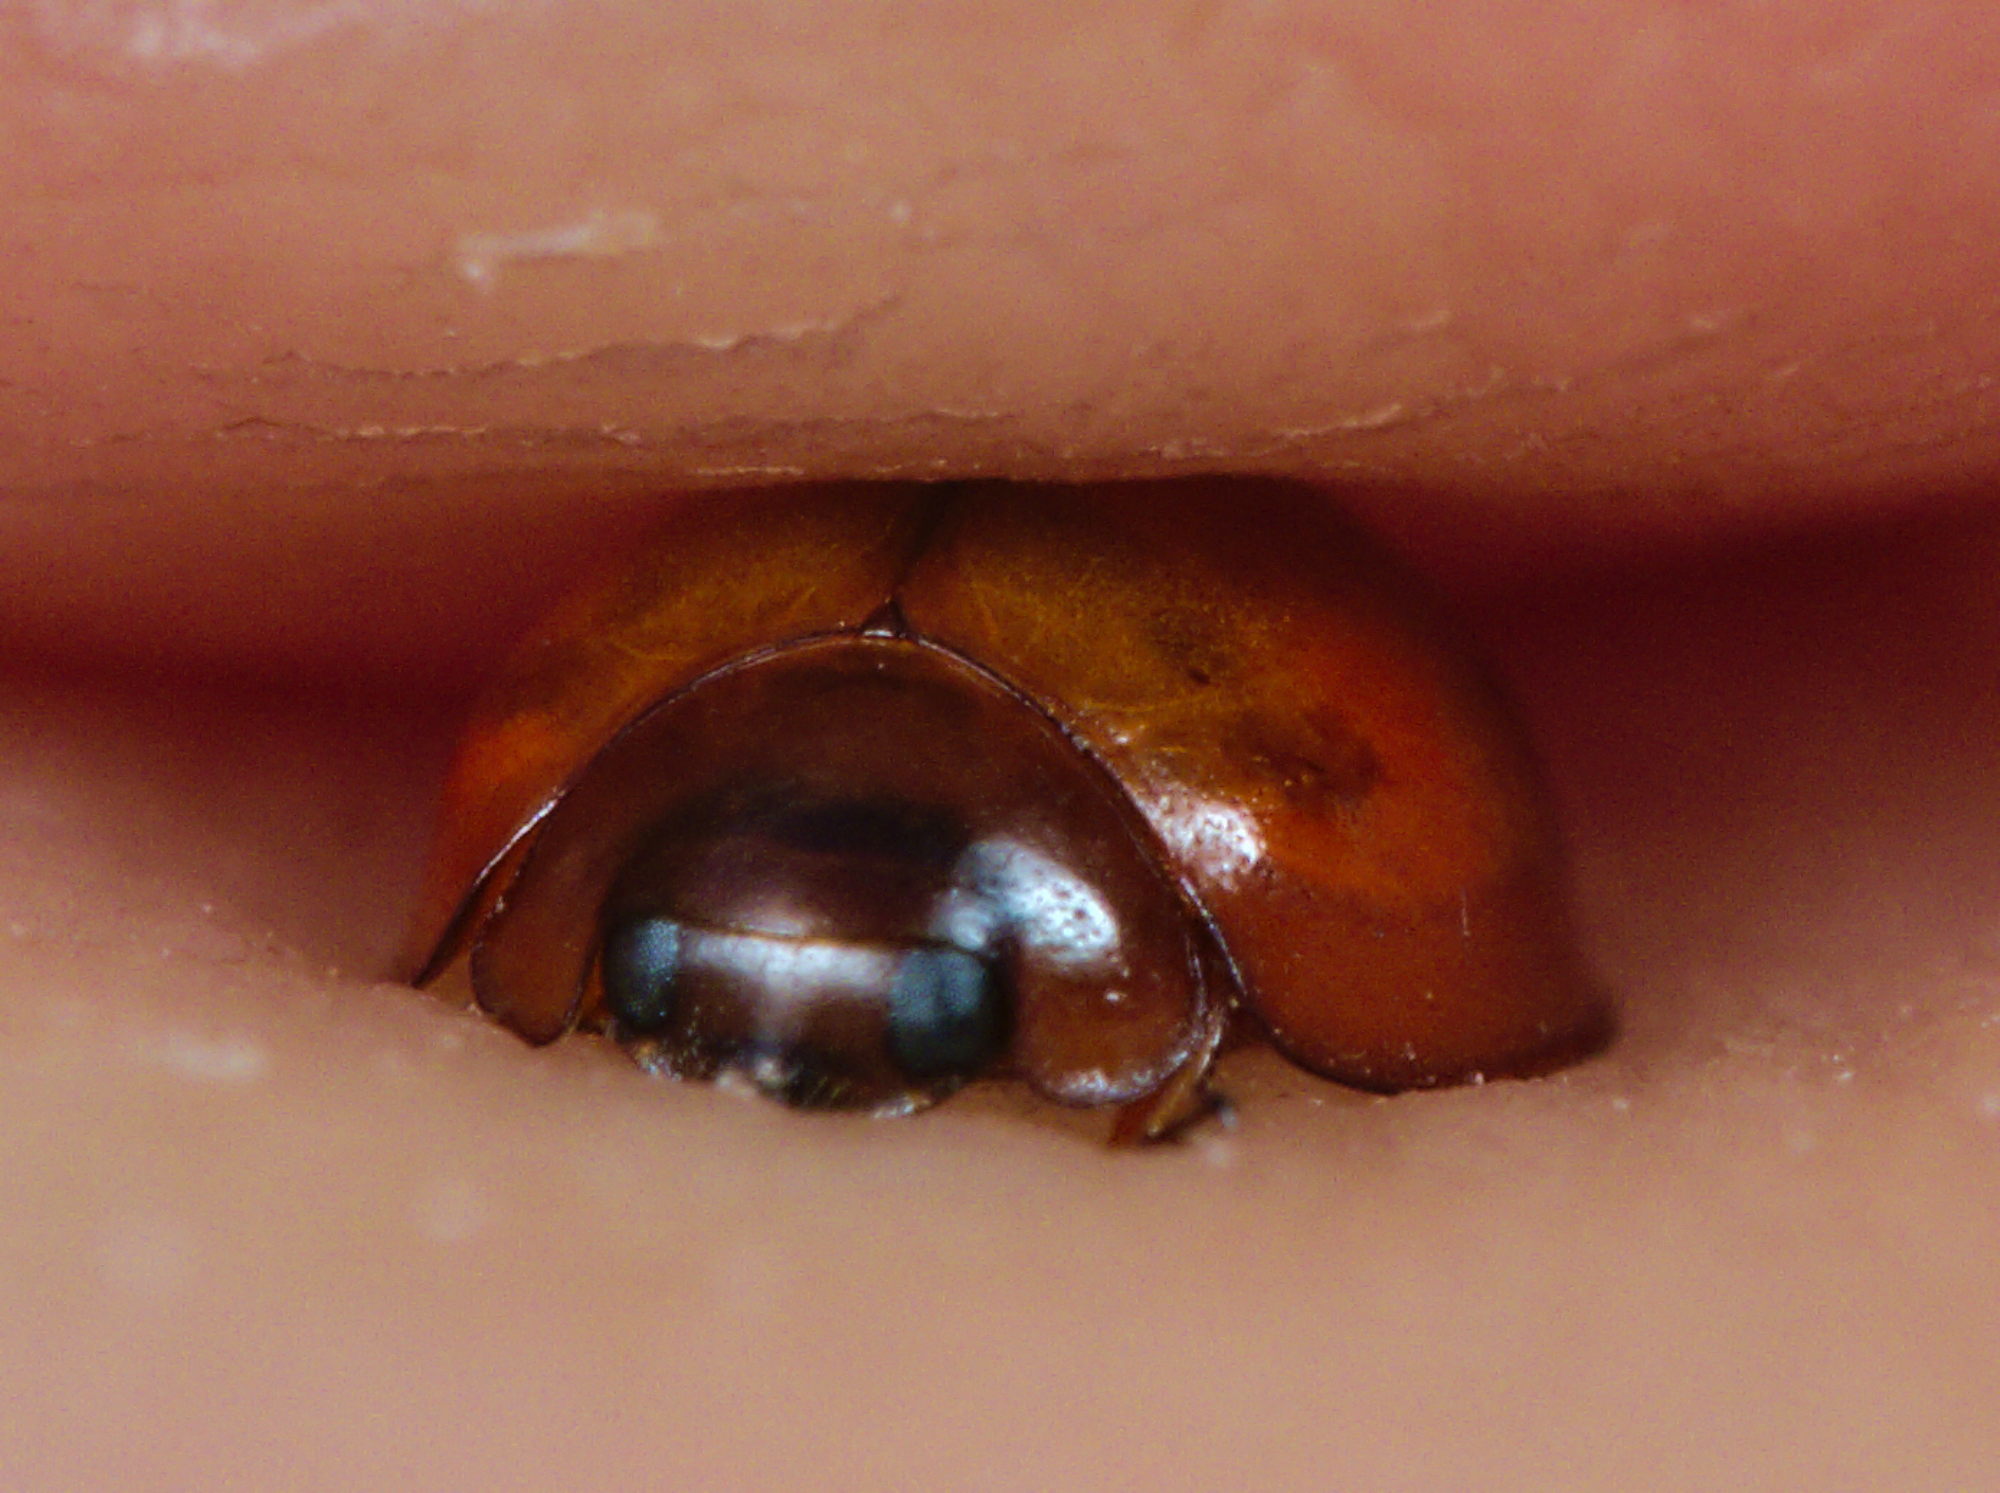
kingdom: Animalia
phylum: Arthropoda
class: Insecta
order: Coleoptera
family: Coccinellidae
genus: Brumus
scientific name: Brumus quadripustulatus
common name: Ladybird beetle
